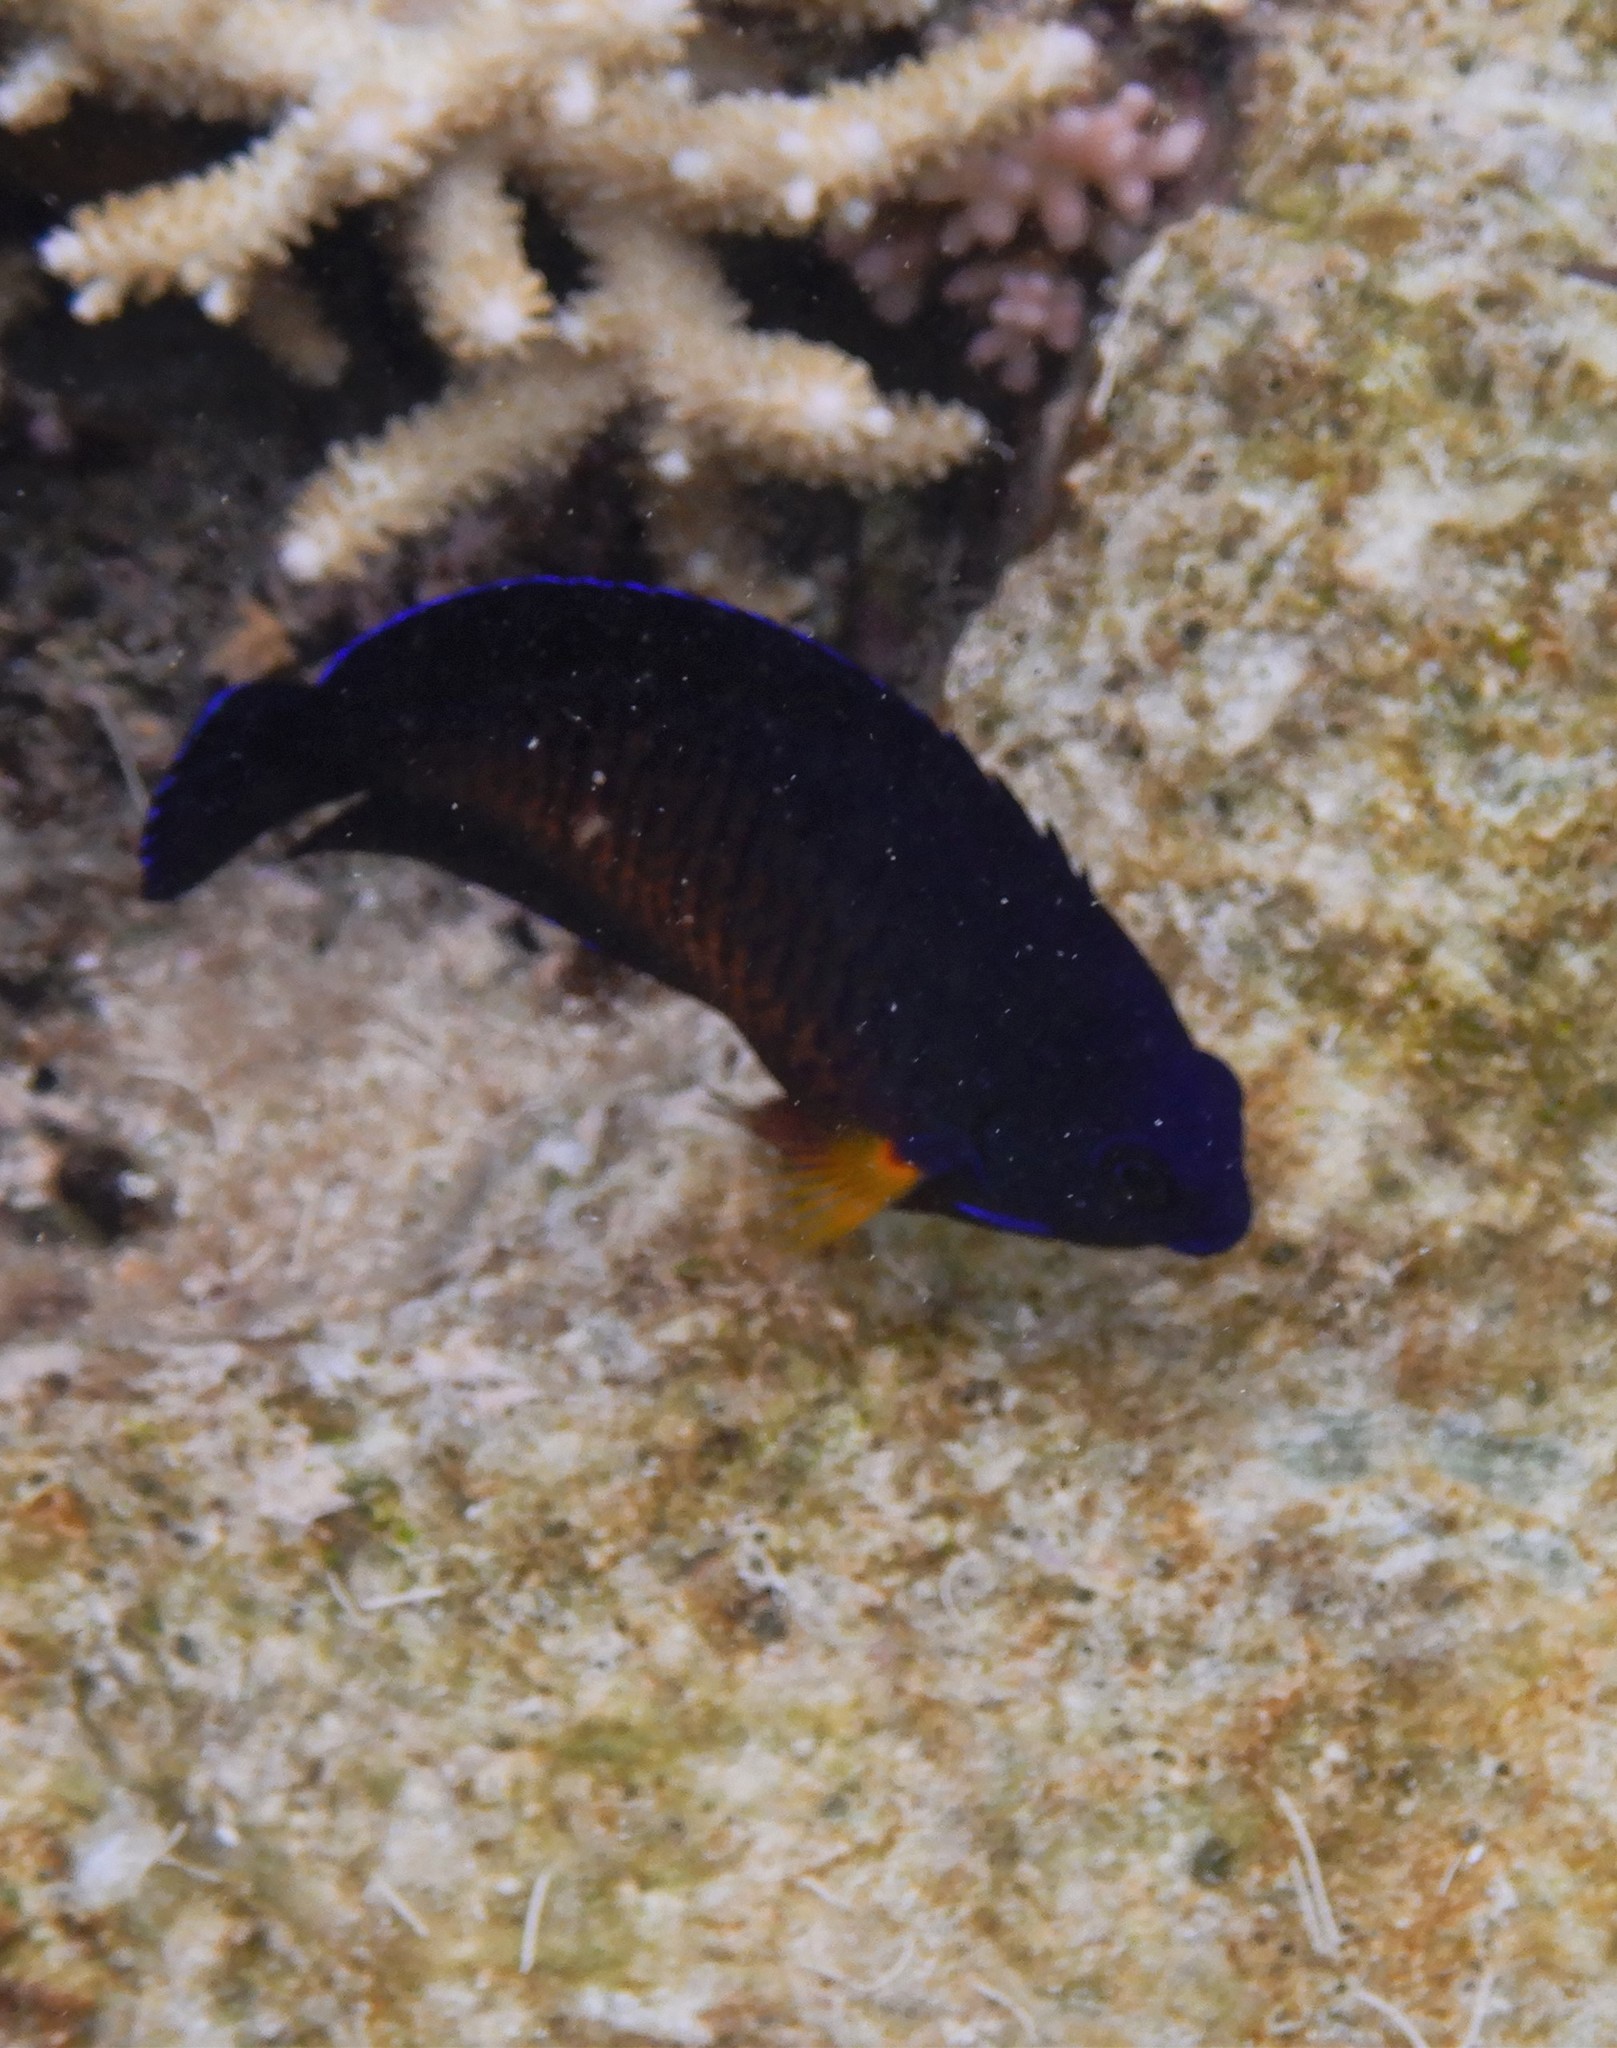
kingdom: Animalia
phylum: Chordata
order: Perciformes
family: Pomacanthidae
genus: Centropyge
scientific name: Centropyge bispinosa
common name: Coral beauty
